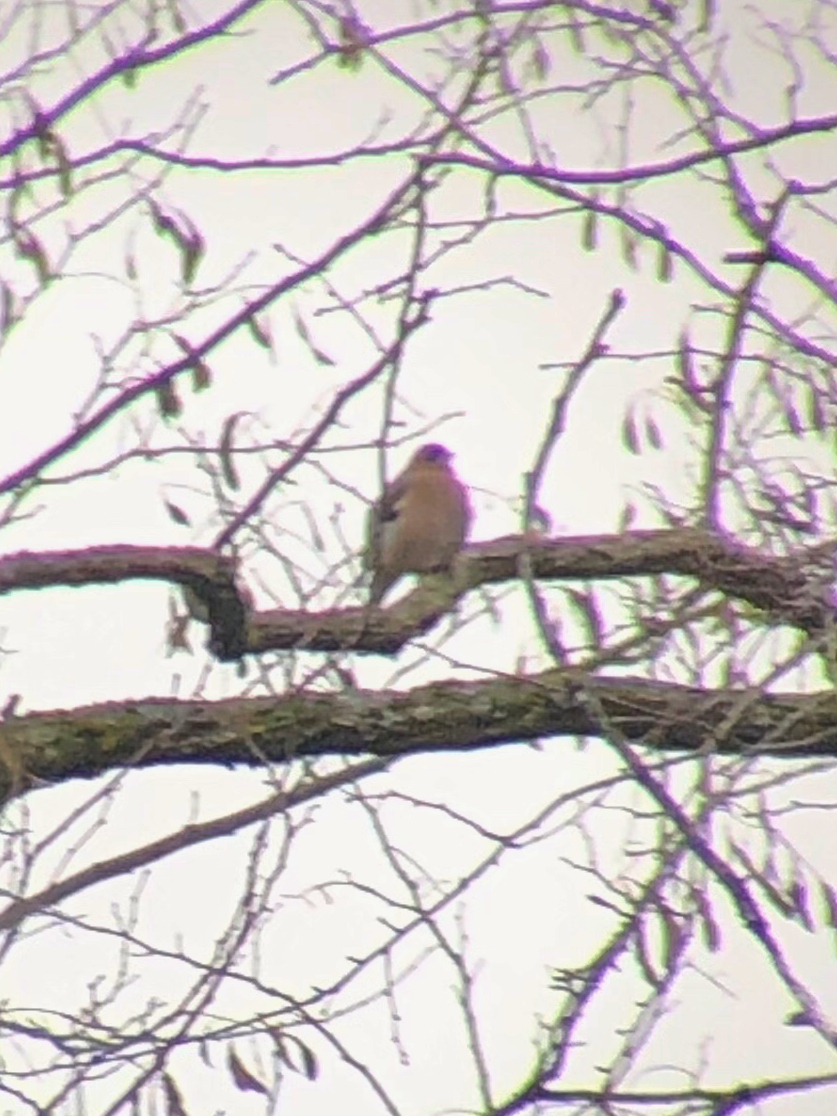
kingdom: Animalia
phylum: Chordata
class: Aves
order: Passeriformes
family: Fringillidae
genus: Fringilla
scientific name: Fringilla coelebs
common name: Common chaffinch
